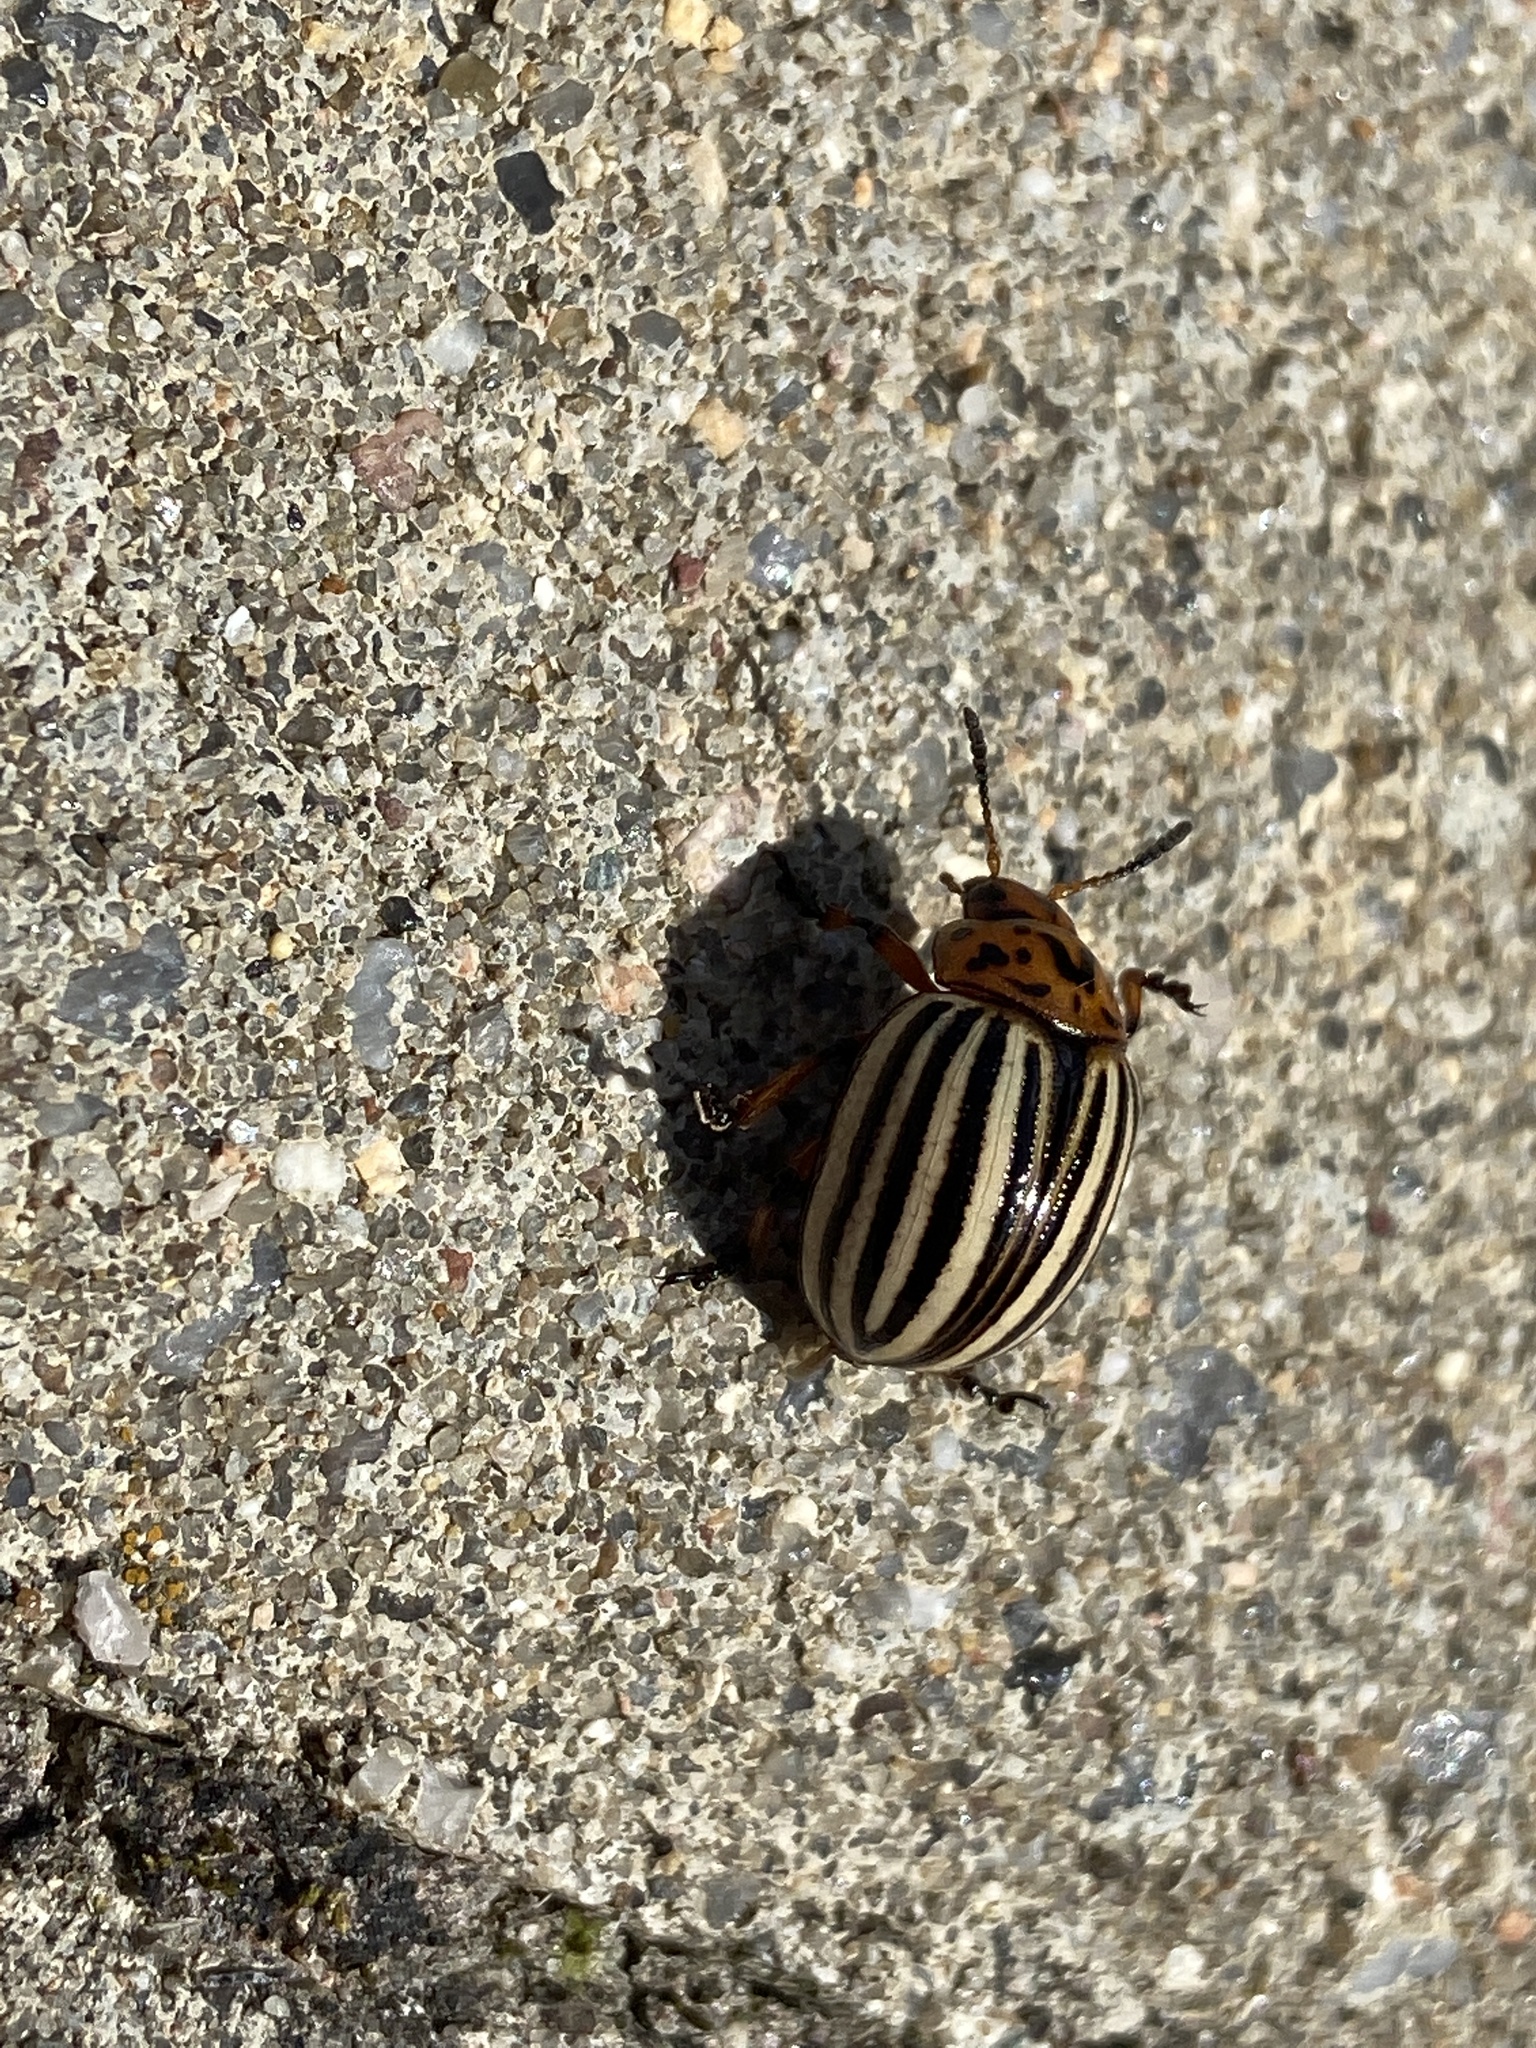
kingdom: Animalia
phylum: Arthropoda
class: Insecta
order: Coleoptera
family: Chrysomelidae
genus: Leptinotarsa
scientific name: Leptinotarsa decemlineata
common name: Colorado potato beetle
